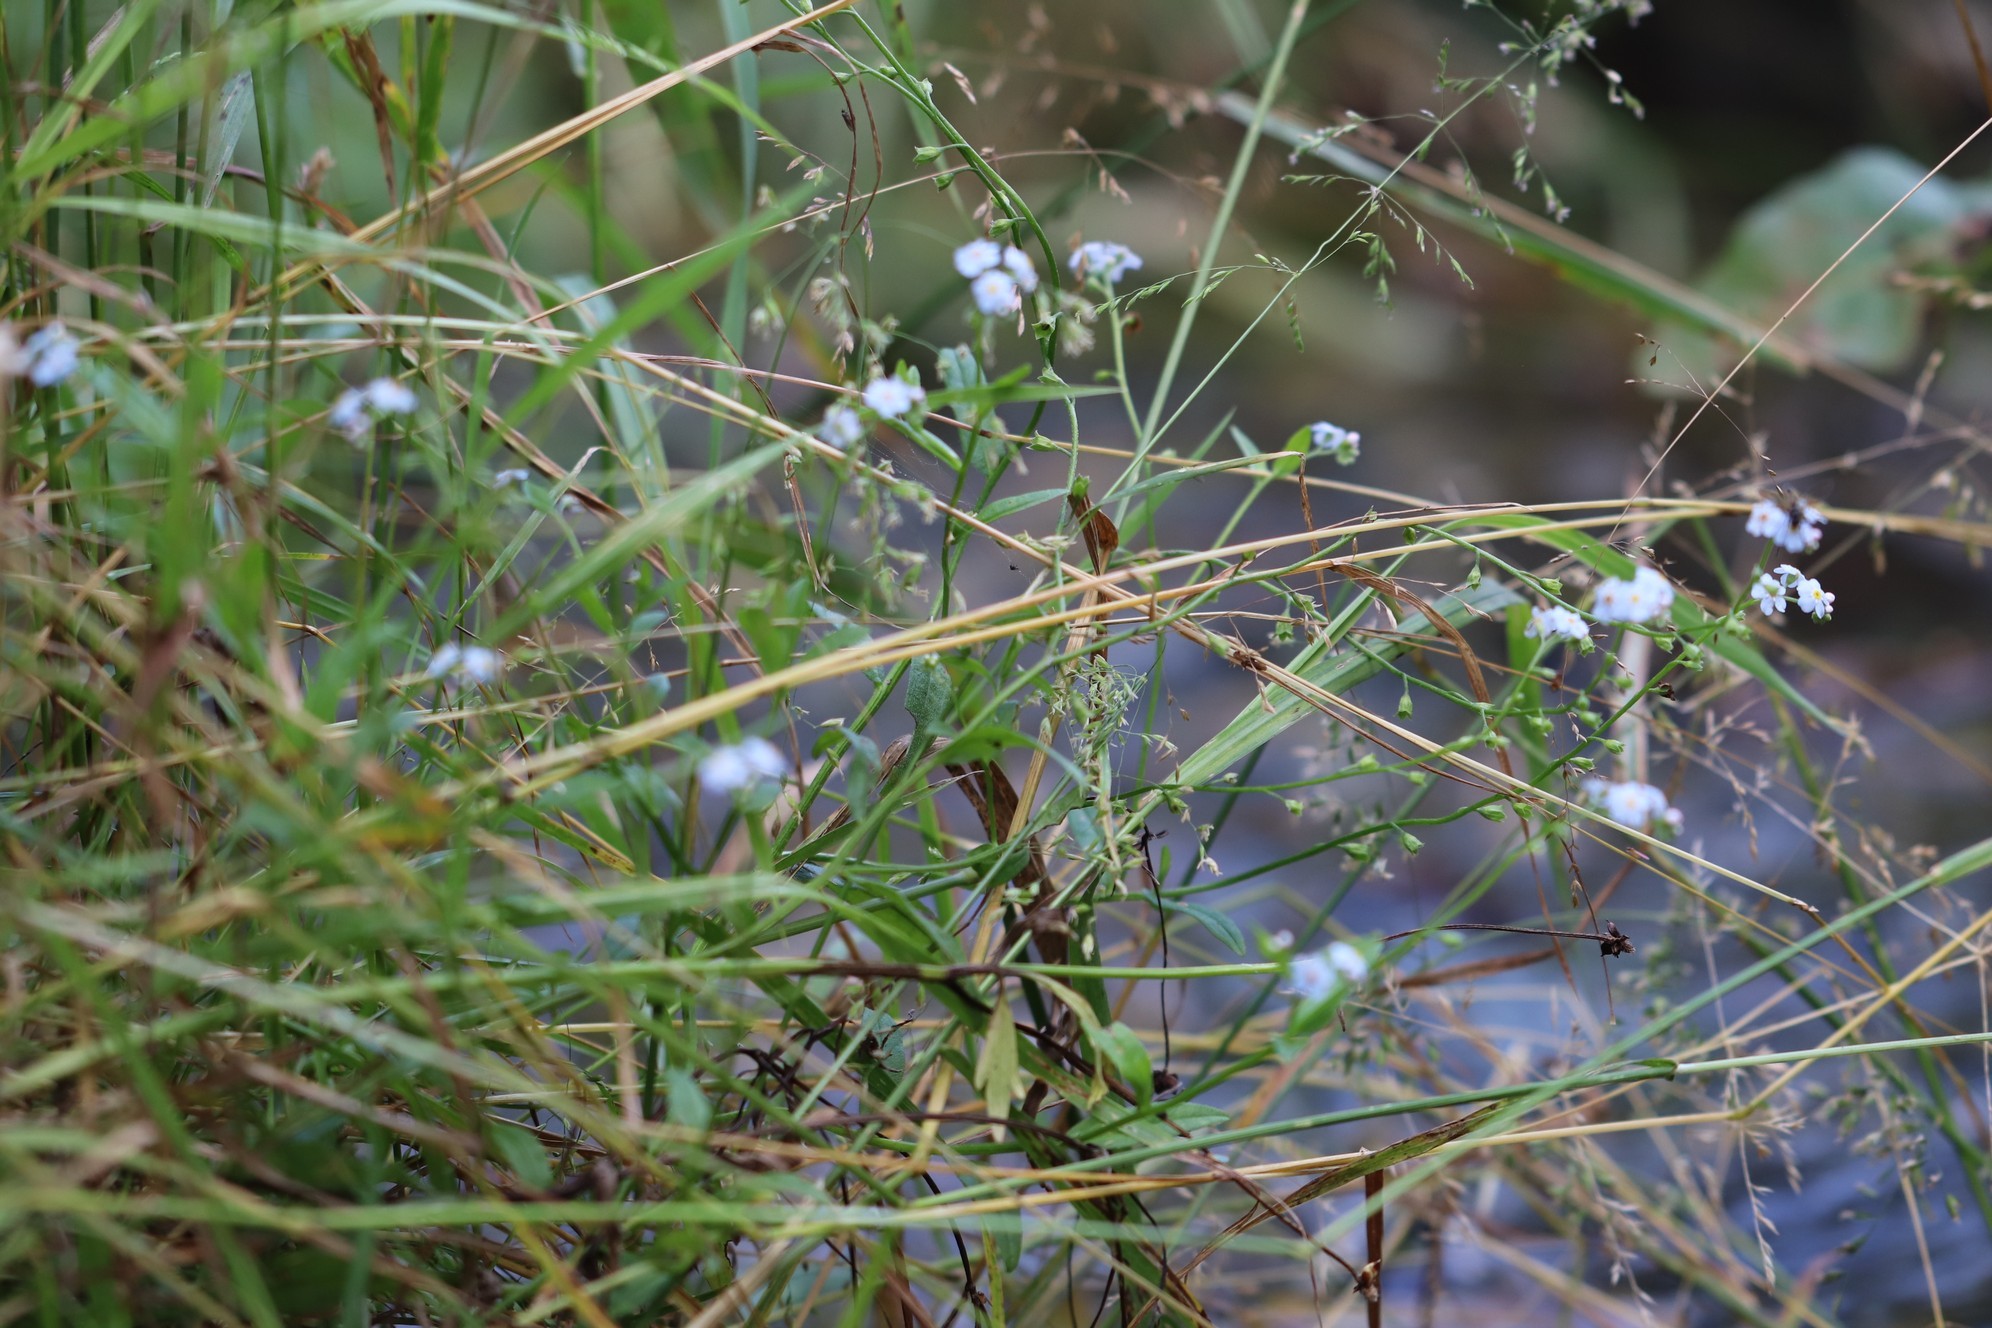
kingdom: Plantae
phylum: Tracheophyta
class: Magnoliopsida
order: Boraginales
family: Boraginaceae
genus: Myosotis
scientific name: Myosotis scorpioides
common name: Water forget-me-not
